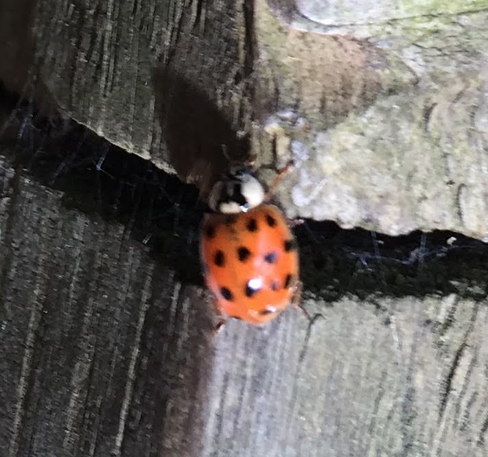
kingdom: Animalia
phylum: Arthropoda
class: Insecta
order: Coleoptera
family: Coccinellidae
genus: Harmonia
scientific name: Harmonia axyridis
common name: Harlequin ladybird
